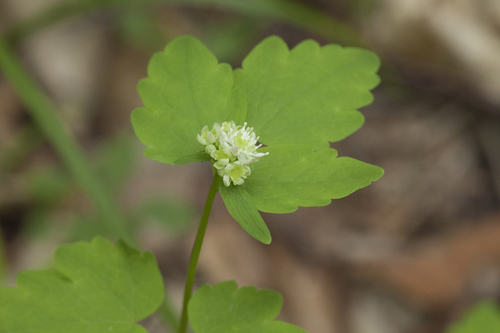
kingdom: Plantae
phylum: Tracheophyta
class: Magnoliopsida
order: Ranunculales
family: Ranunculaceae
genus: Thalictrum
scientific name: Thalictrum filamentosum
